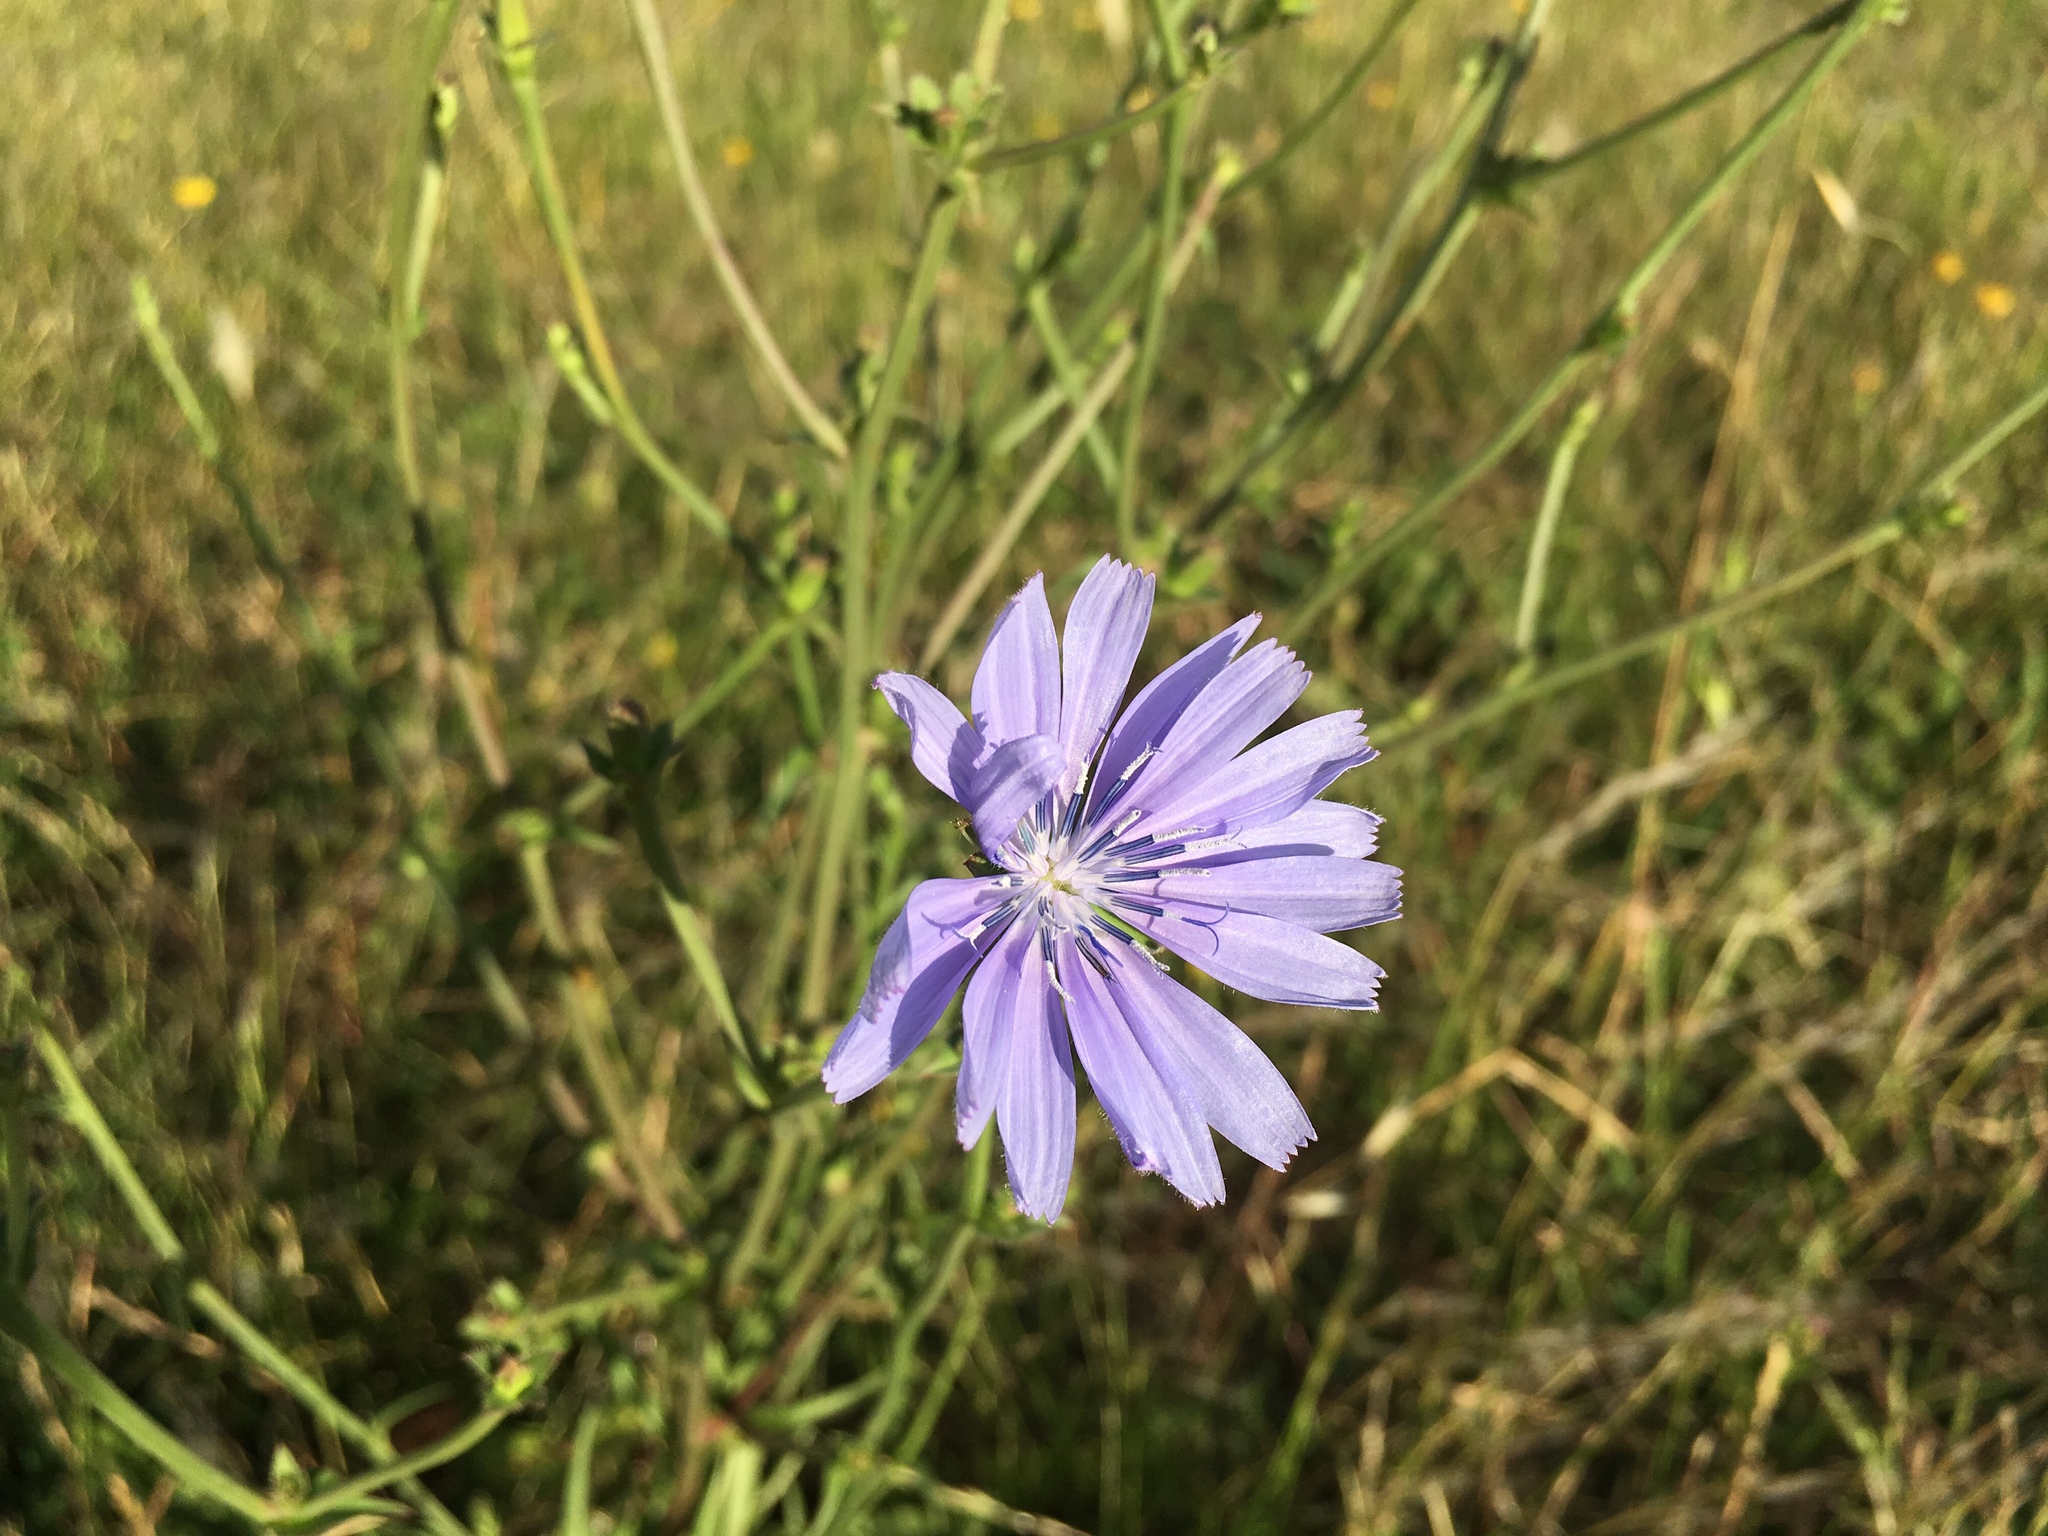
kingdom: Plantae
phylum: Tracheophyta
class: Magnoliopsida
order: Asterales
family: Asteraceae
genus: Cichorium
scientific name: Cichorium intybus
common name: Chicory
